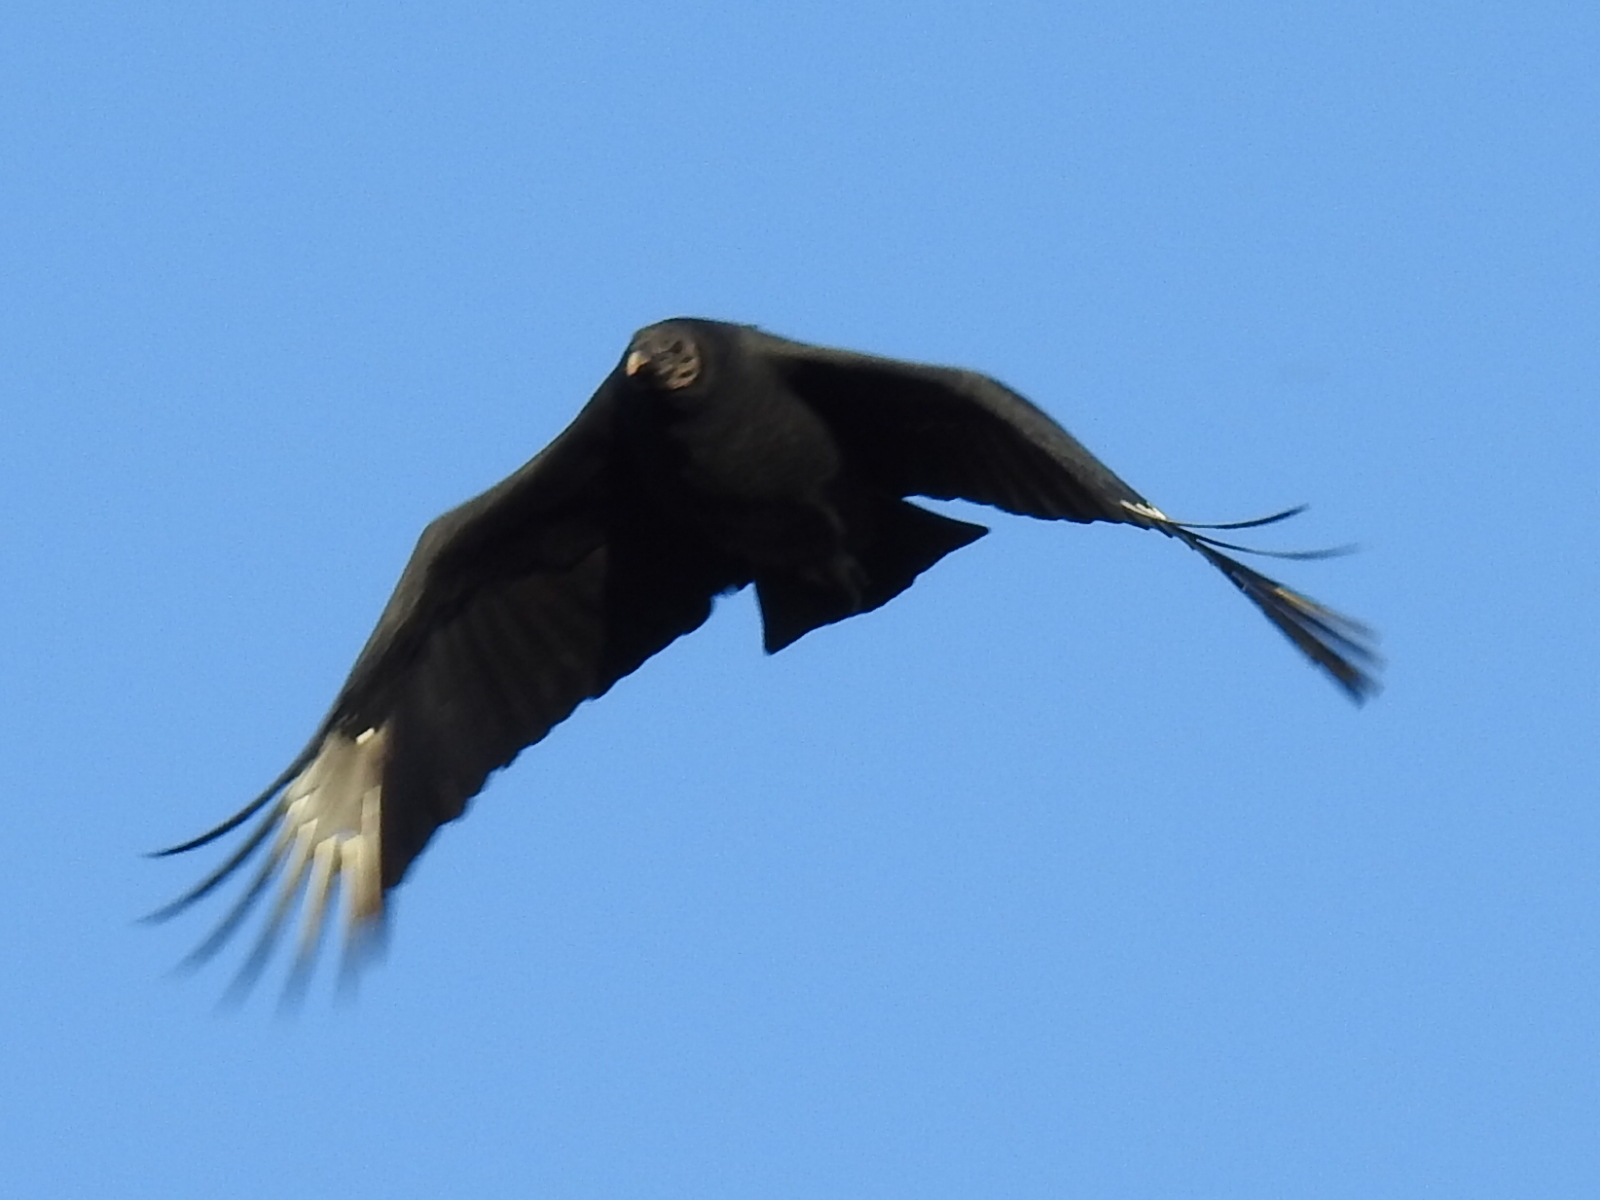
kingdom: Animalia
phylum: Chordata
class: Aves
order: Accipitriformes
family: Cathartidae
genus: Coragyps
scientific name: Coragyps atratus
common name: Black vulture
